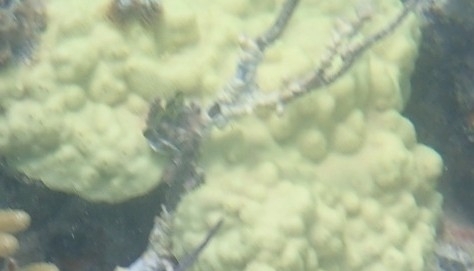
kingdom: Animalia
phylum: Cnidaria
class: Anthozoa
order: Scleractinia
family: Poritidae
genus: Porites
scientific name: Porites astreoides
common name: Mustard hill coral
